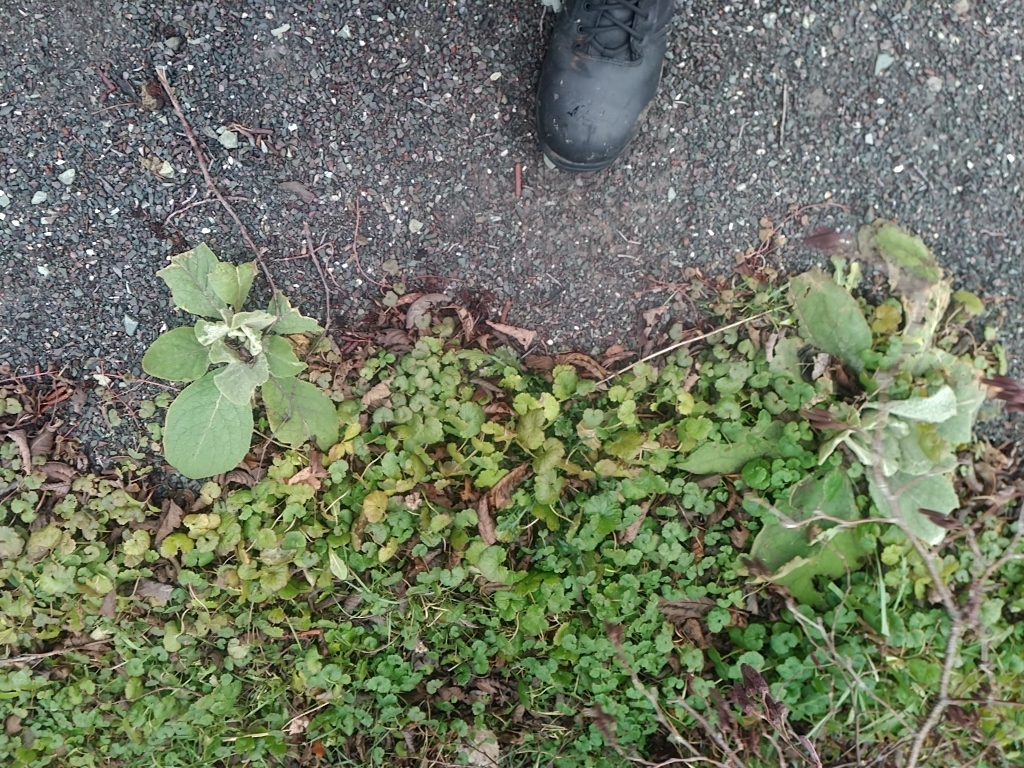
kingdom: Plantae
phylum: Tracheophyta
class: Magnoliopsida
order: Lamiales
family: Scrophulariaceae
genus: Verbascum
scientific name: Verbascum thapsus
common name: Common mullein
